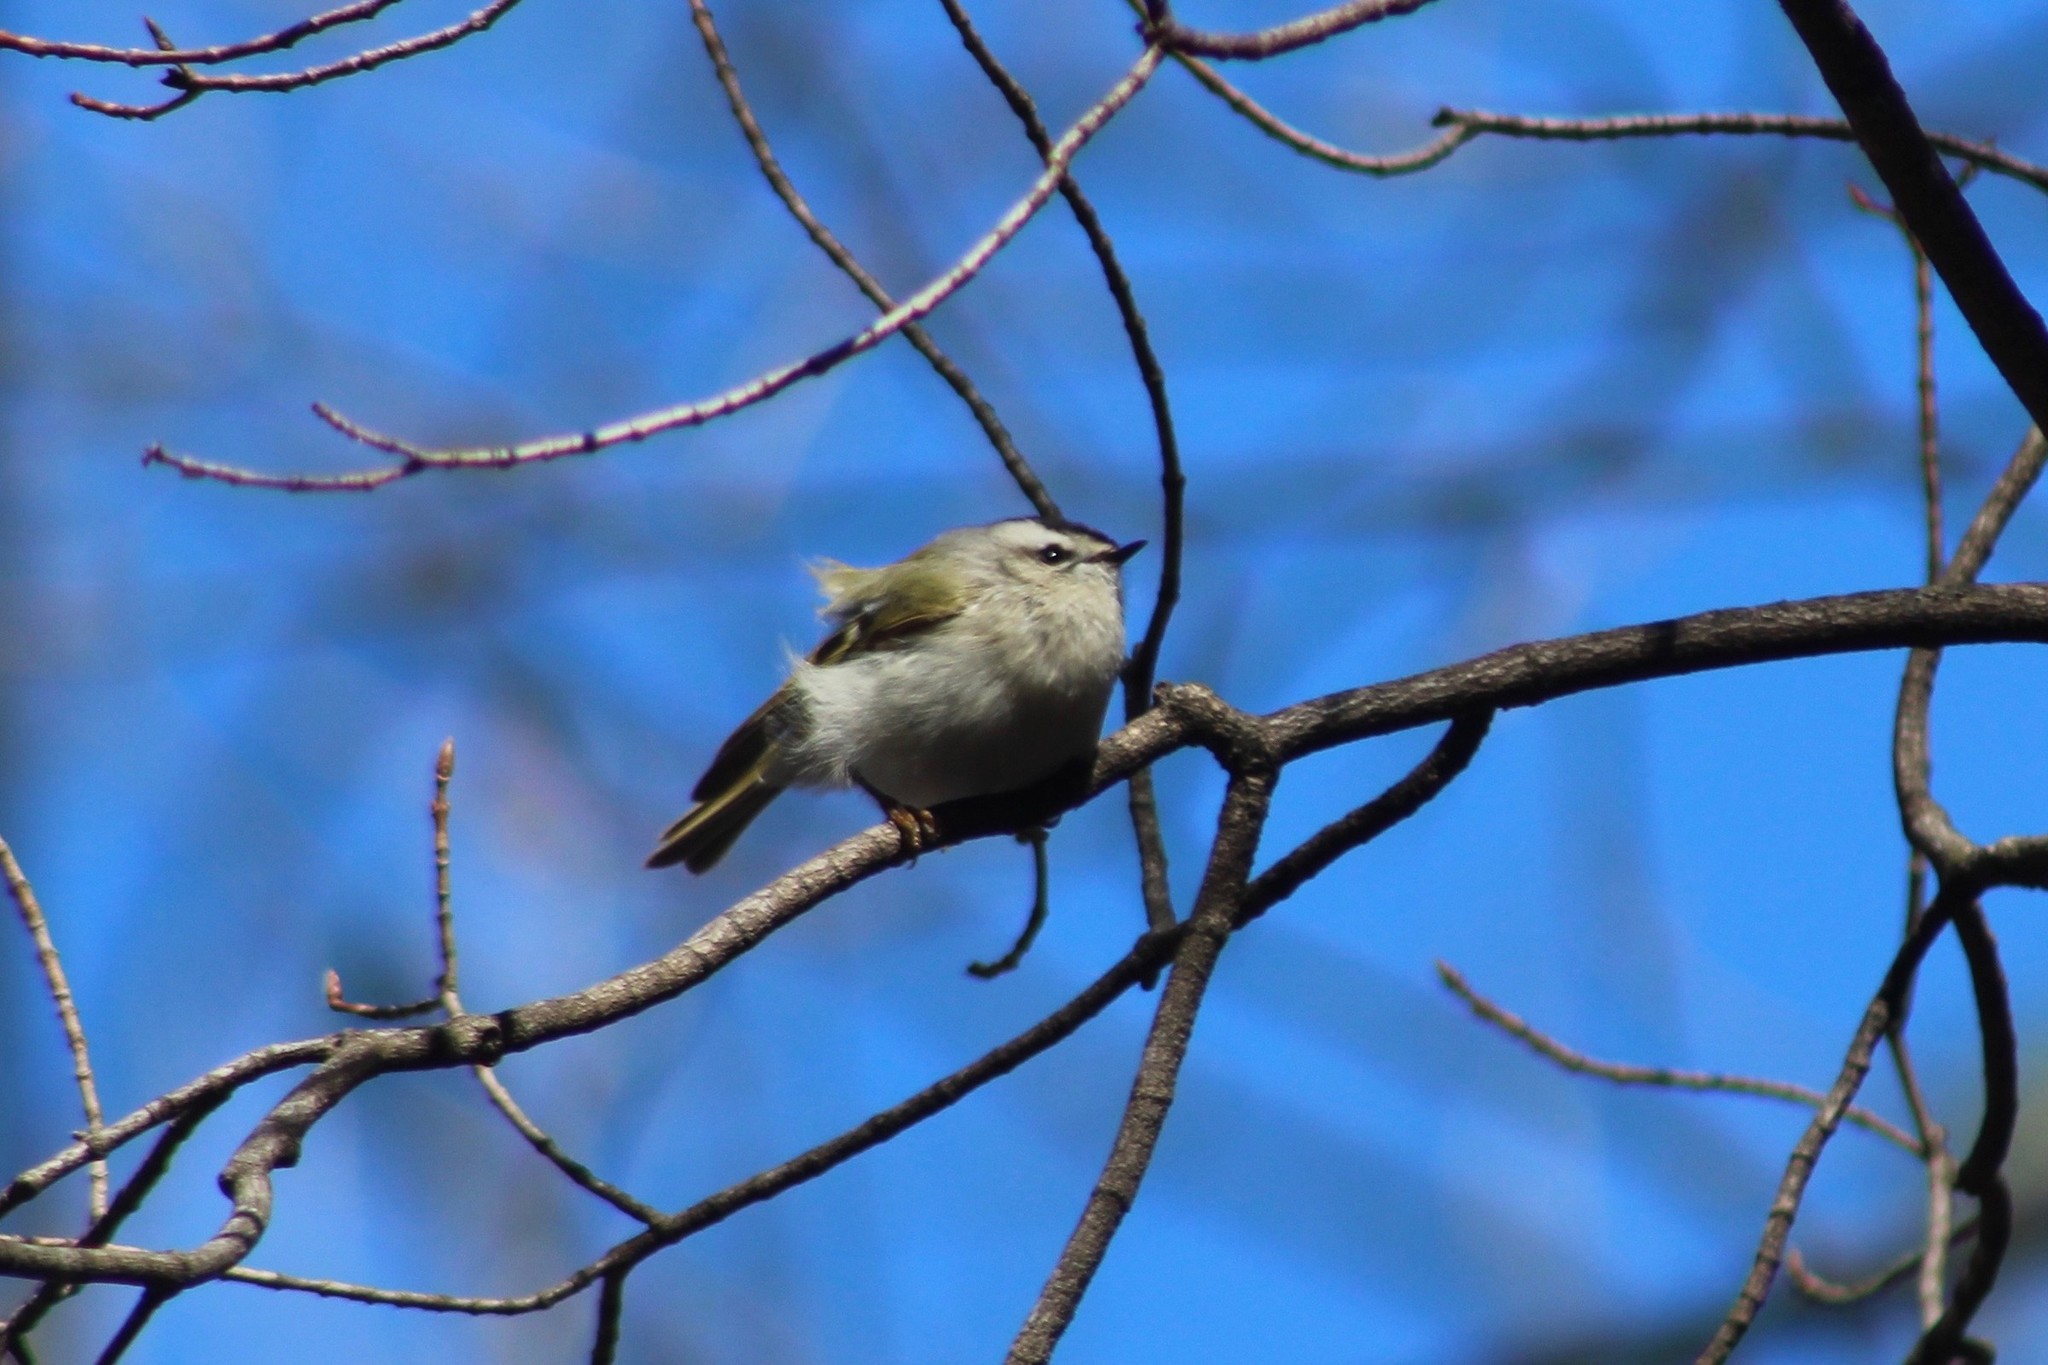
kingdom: Animalia
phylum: Chordata
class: Aves
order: Passeriformes
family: Regulidae
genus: Regulus
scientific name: Regulus satrapa
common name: Golden-crowned kinglet
